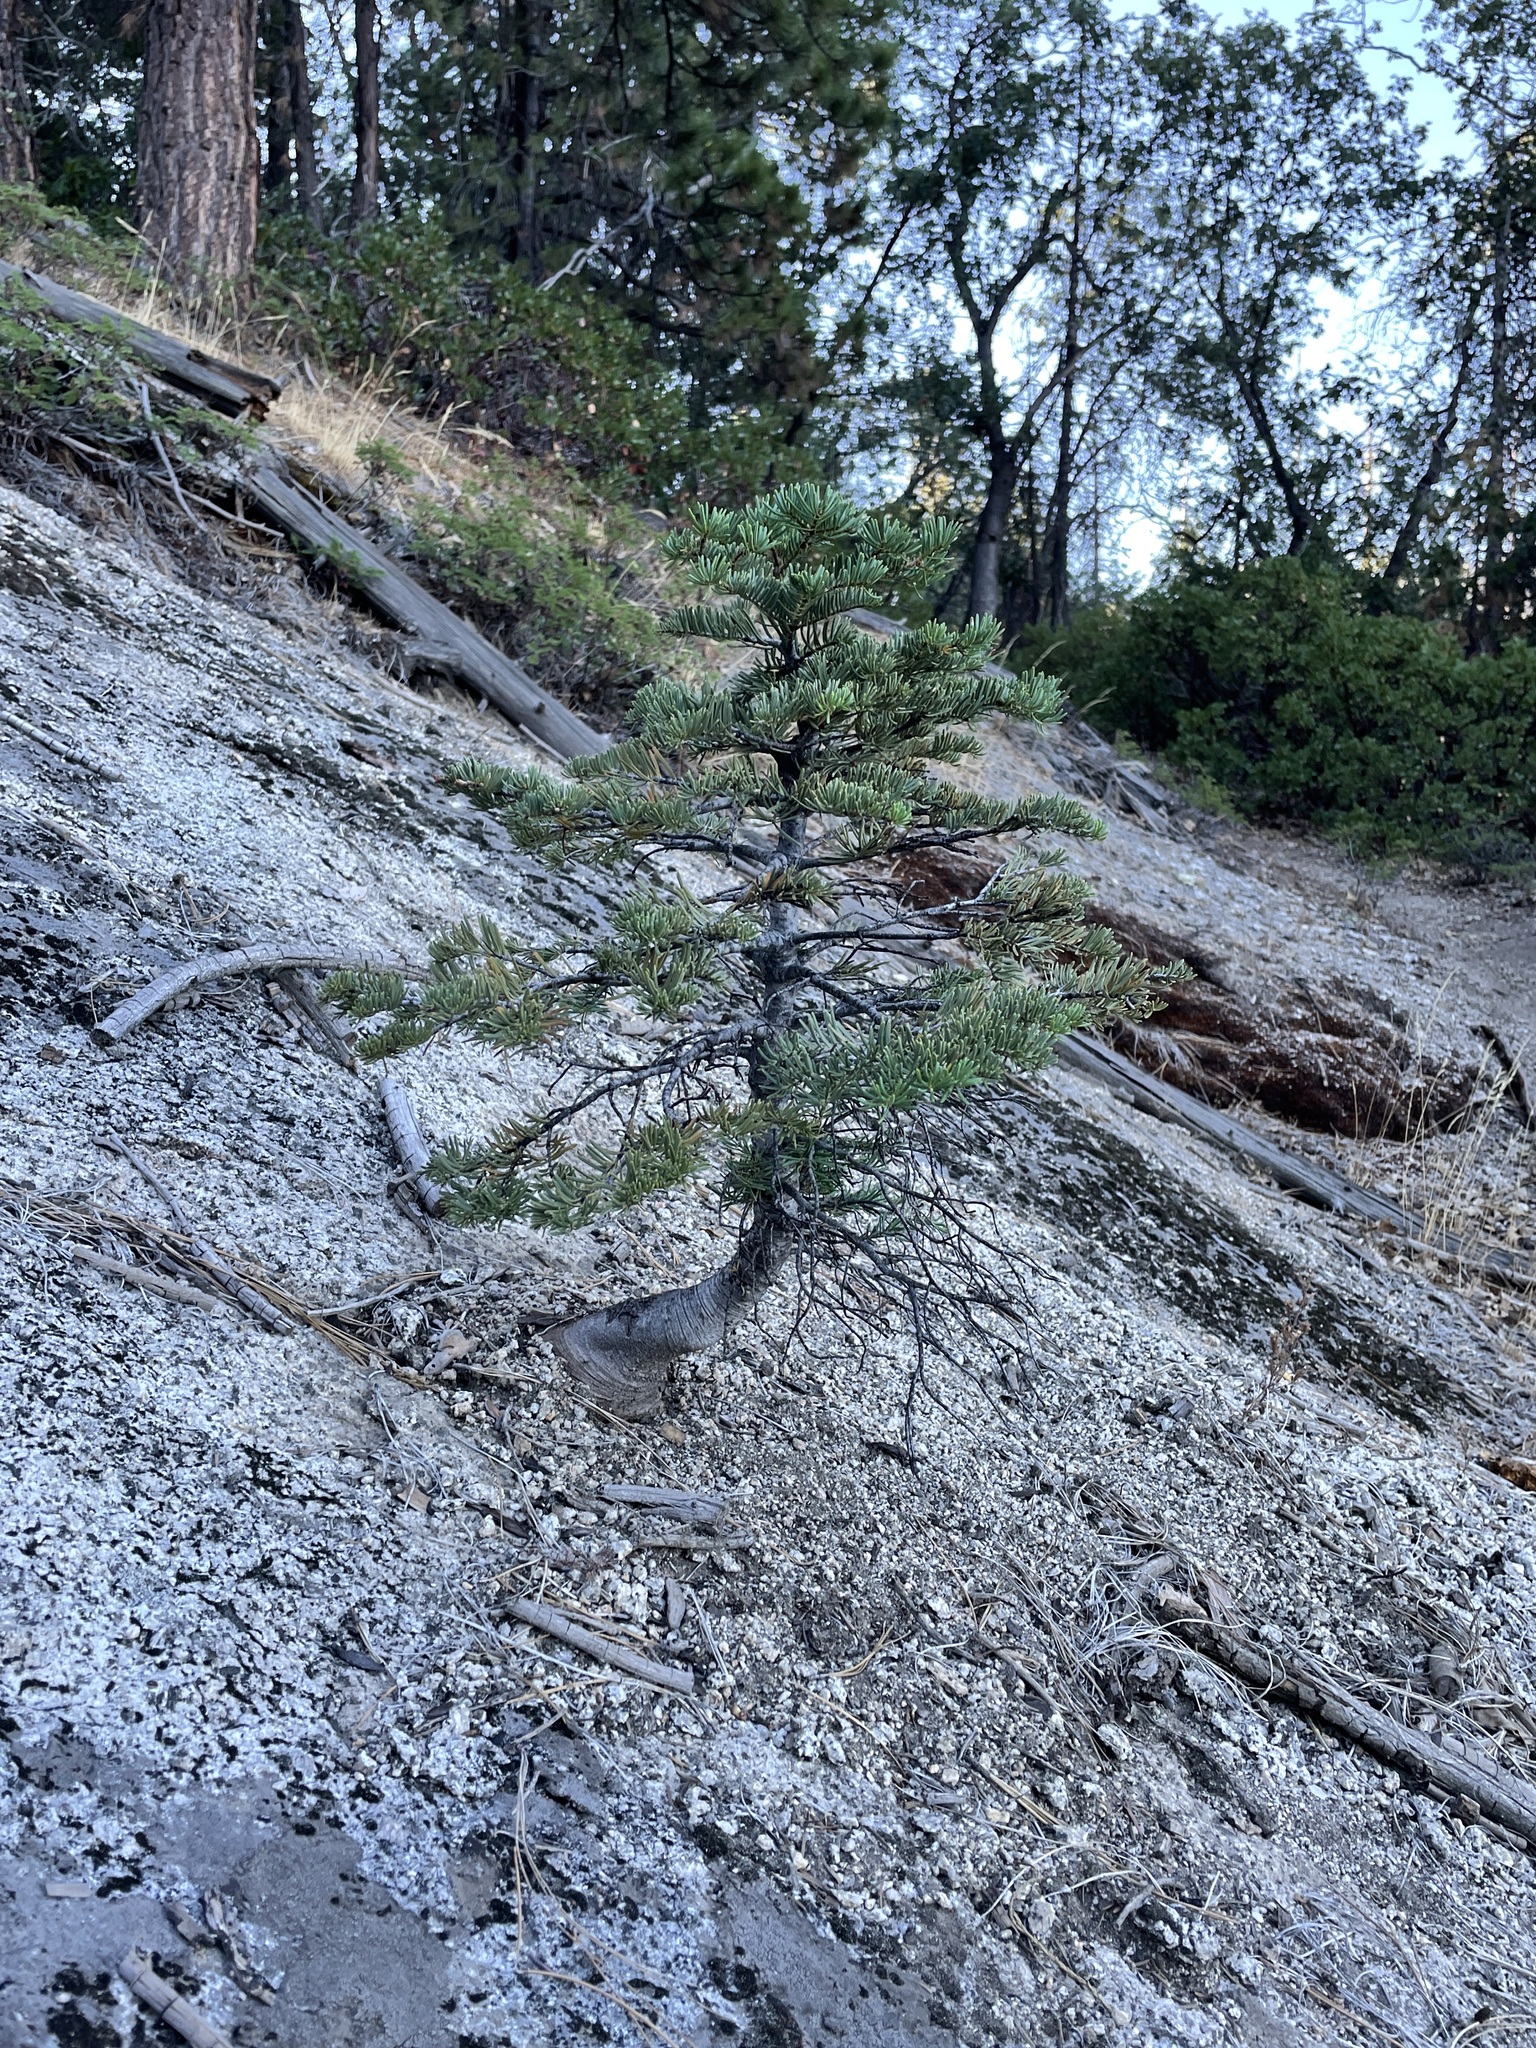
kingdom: Plantae
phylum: Tracheophyta
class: Pinopsida
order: Pinales
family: Pinaceae
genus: Abies
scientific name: Abies concolor
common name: Colorado fir
